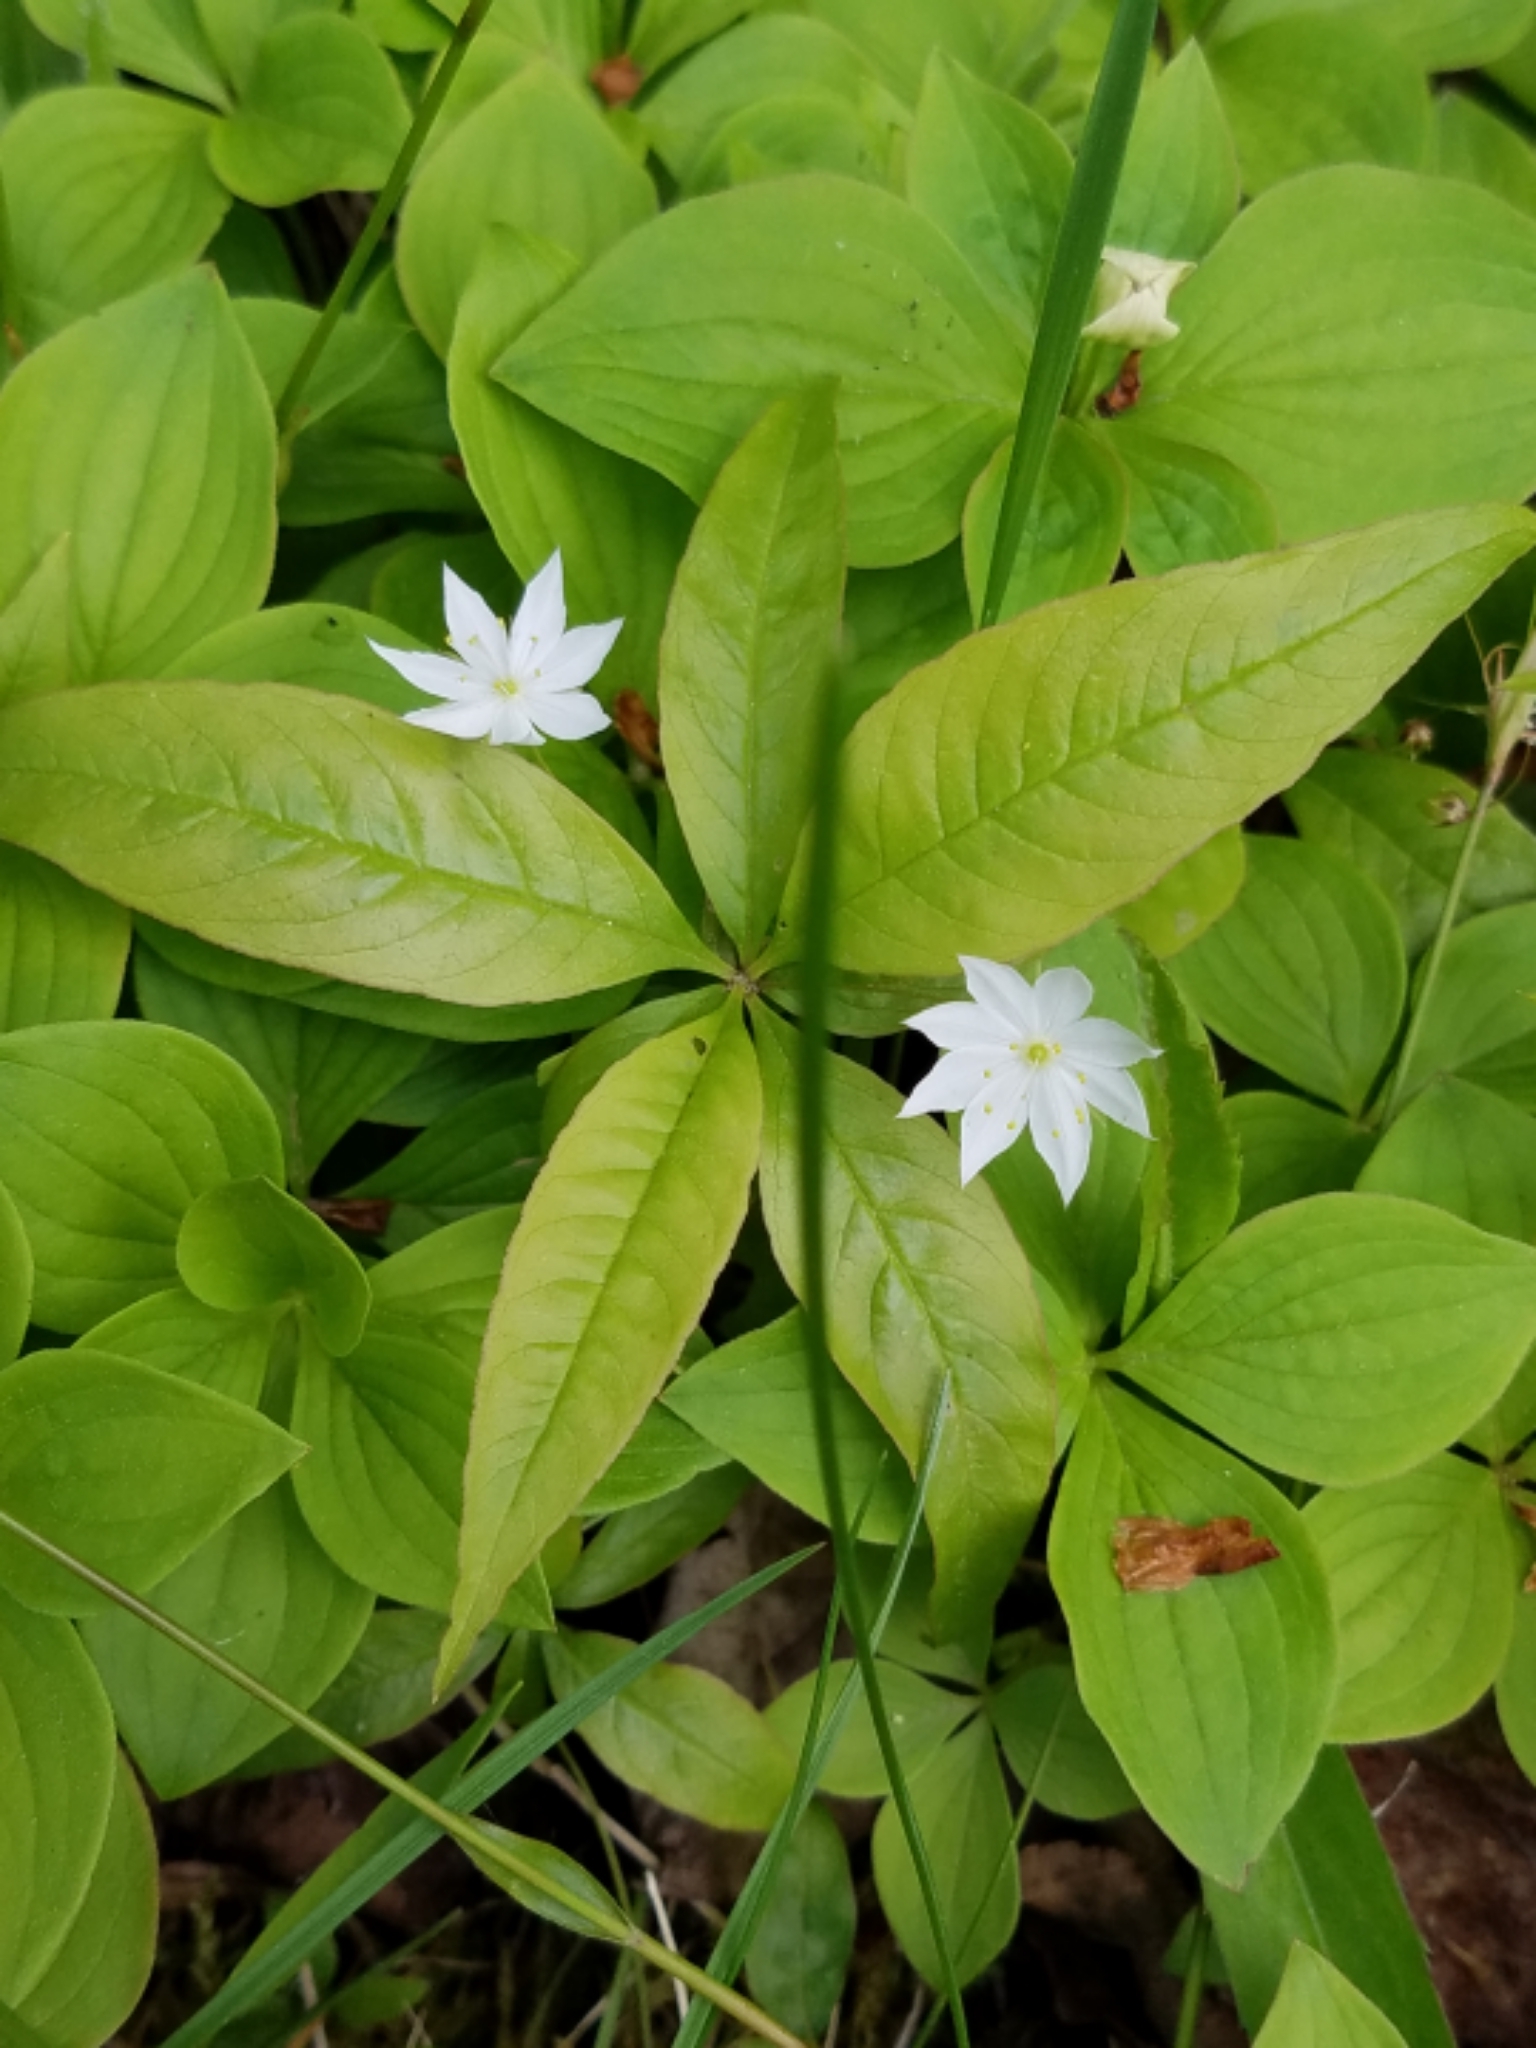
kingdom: Plantae
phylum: Tracheophyta
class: Magnoliopsida
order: Ericales
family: Primulaceae
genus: Lysimachia
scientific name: Lysimachia borealis
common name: American starflower
